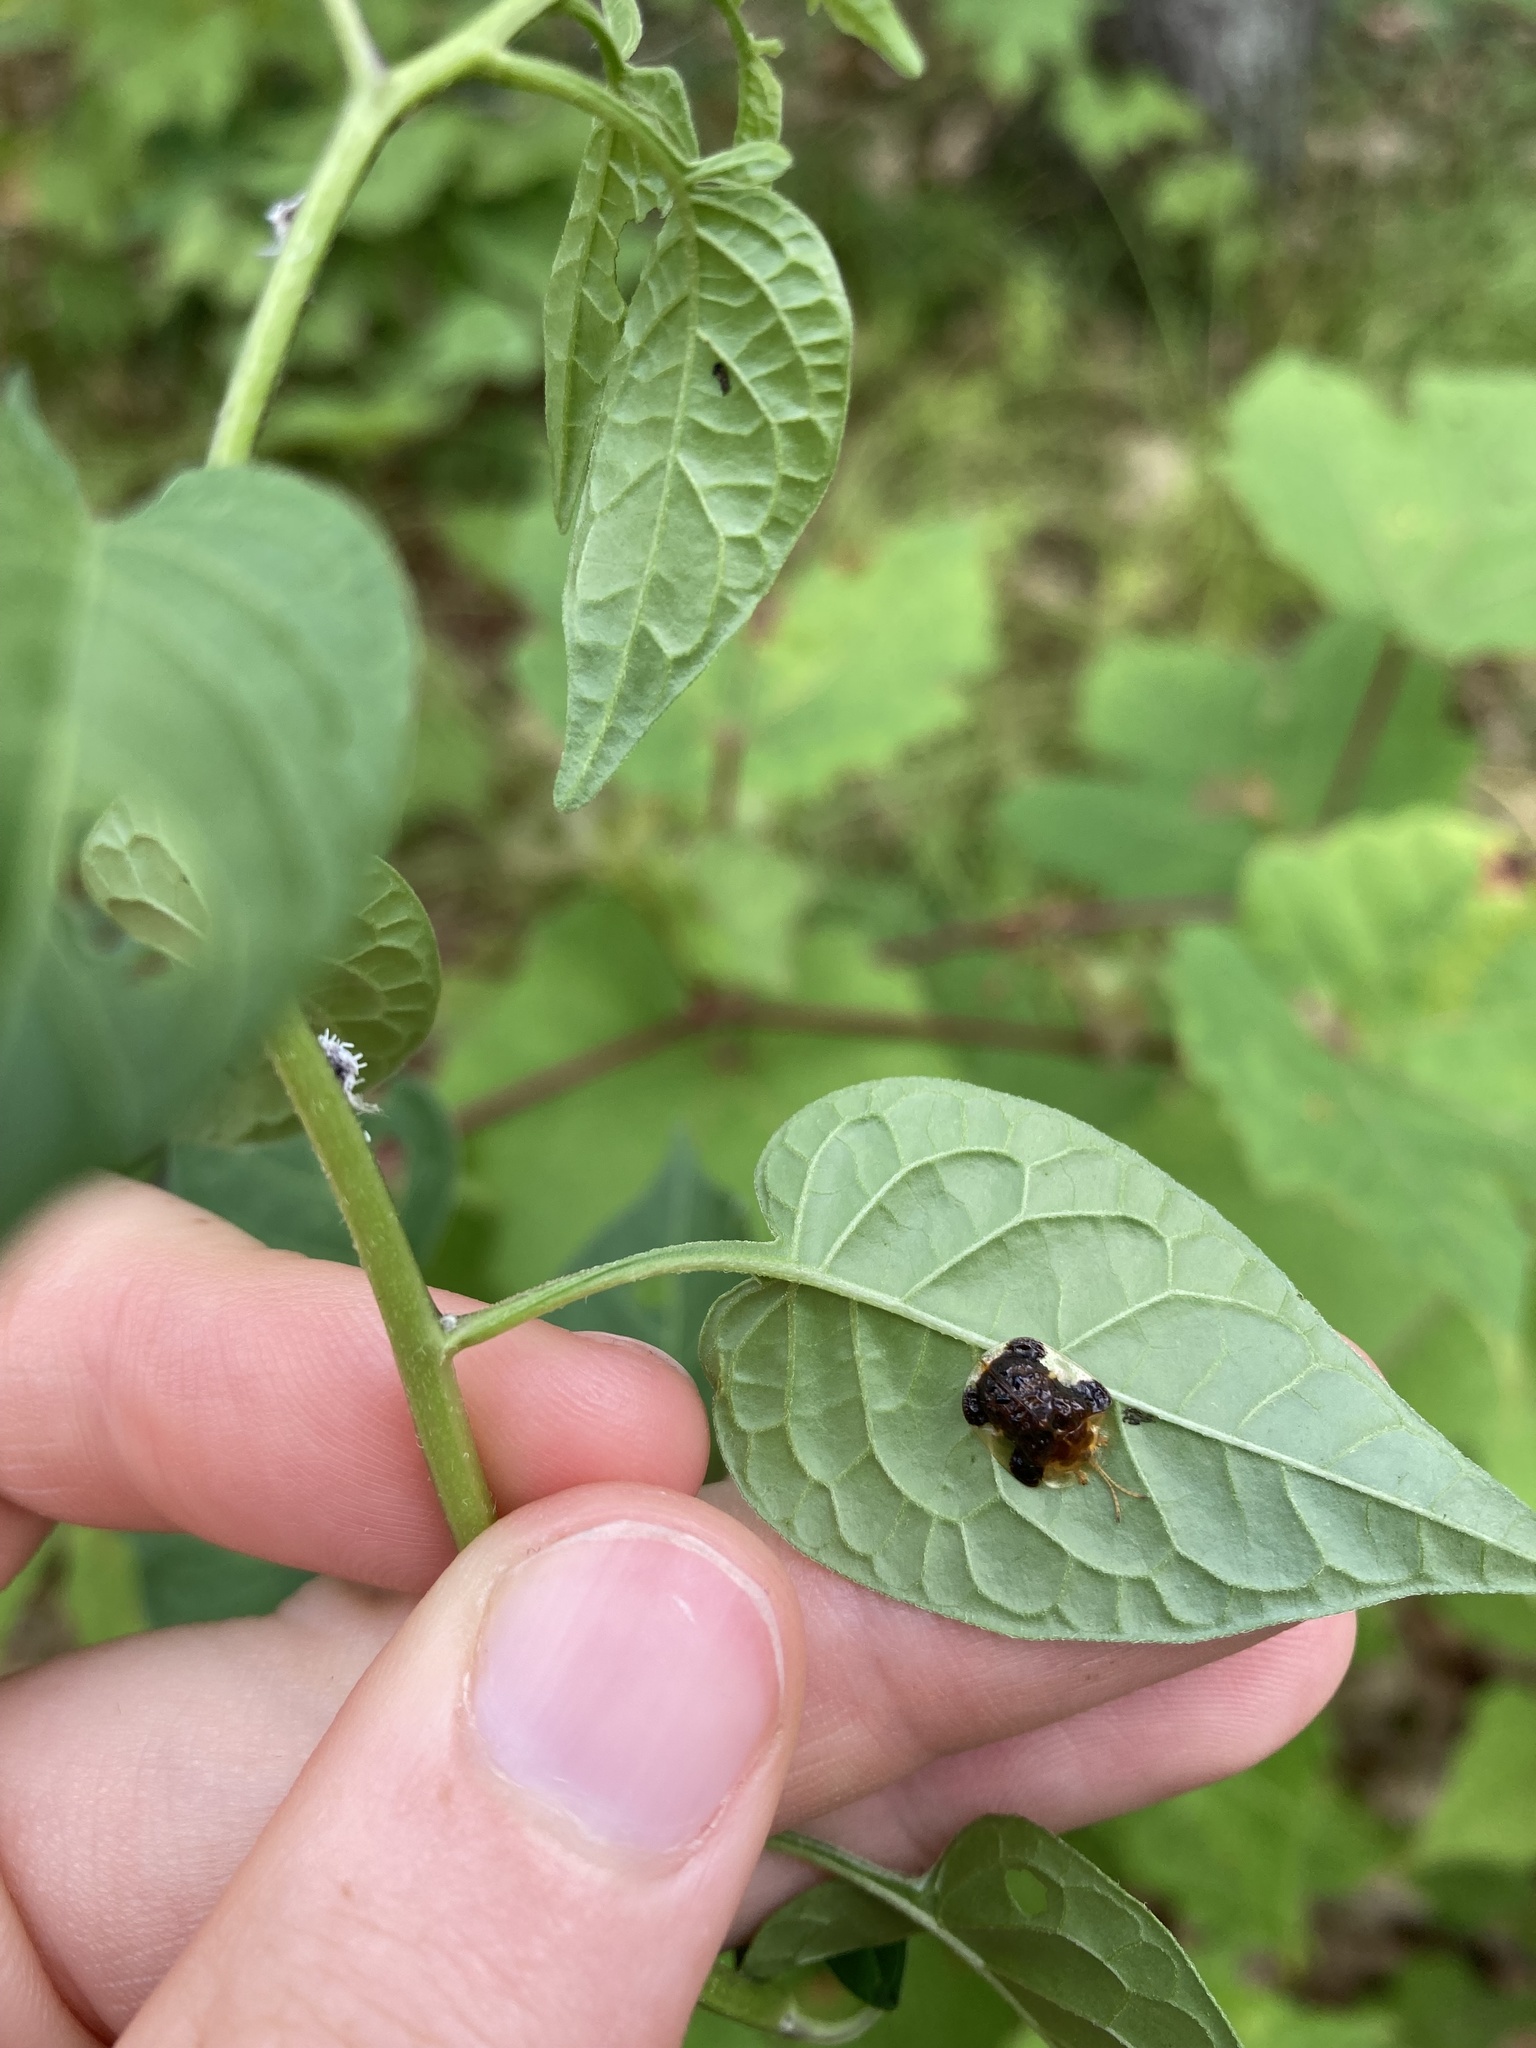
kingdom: Animalia
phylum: Arthropoda
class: Insecta
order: Coleoptera
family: Chrysomelidae
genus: Helocassis
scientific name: Helocassis clavata
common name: Clavate tortoise beetle
